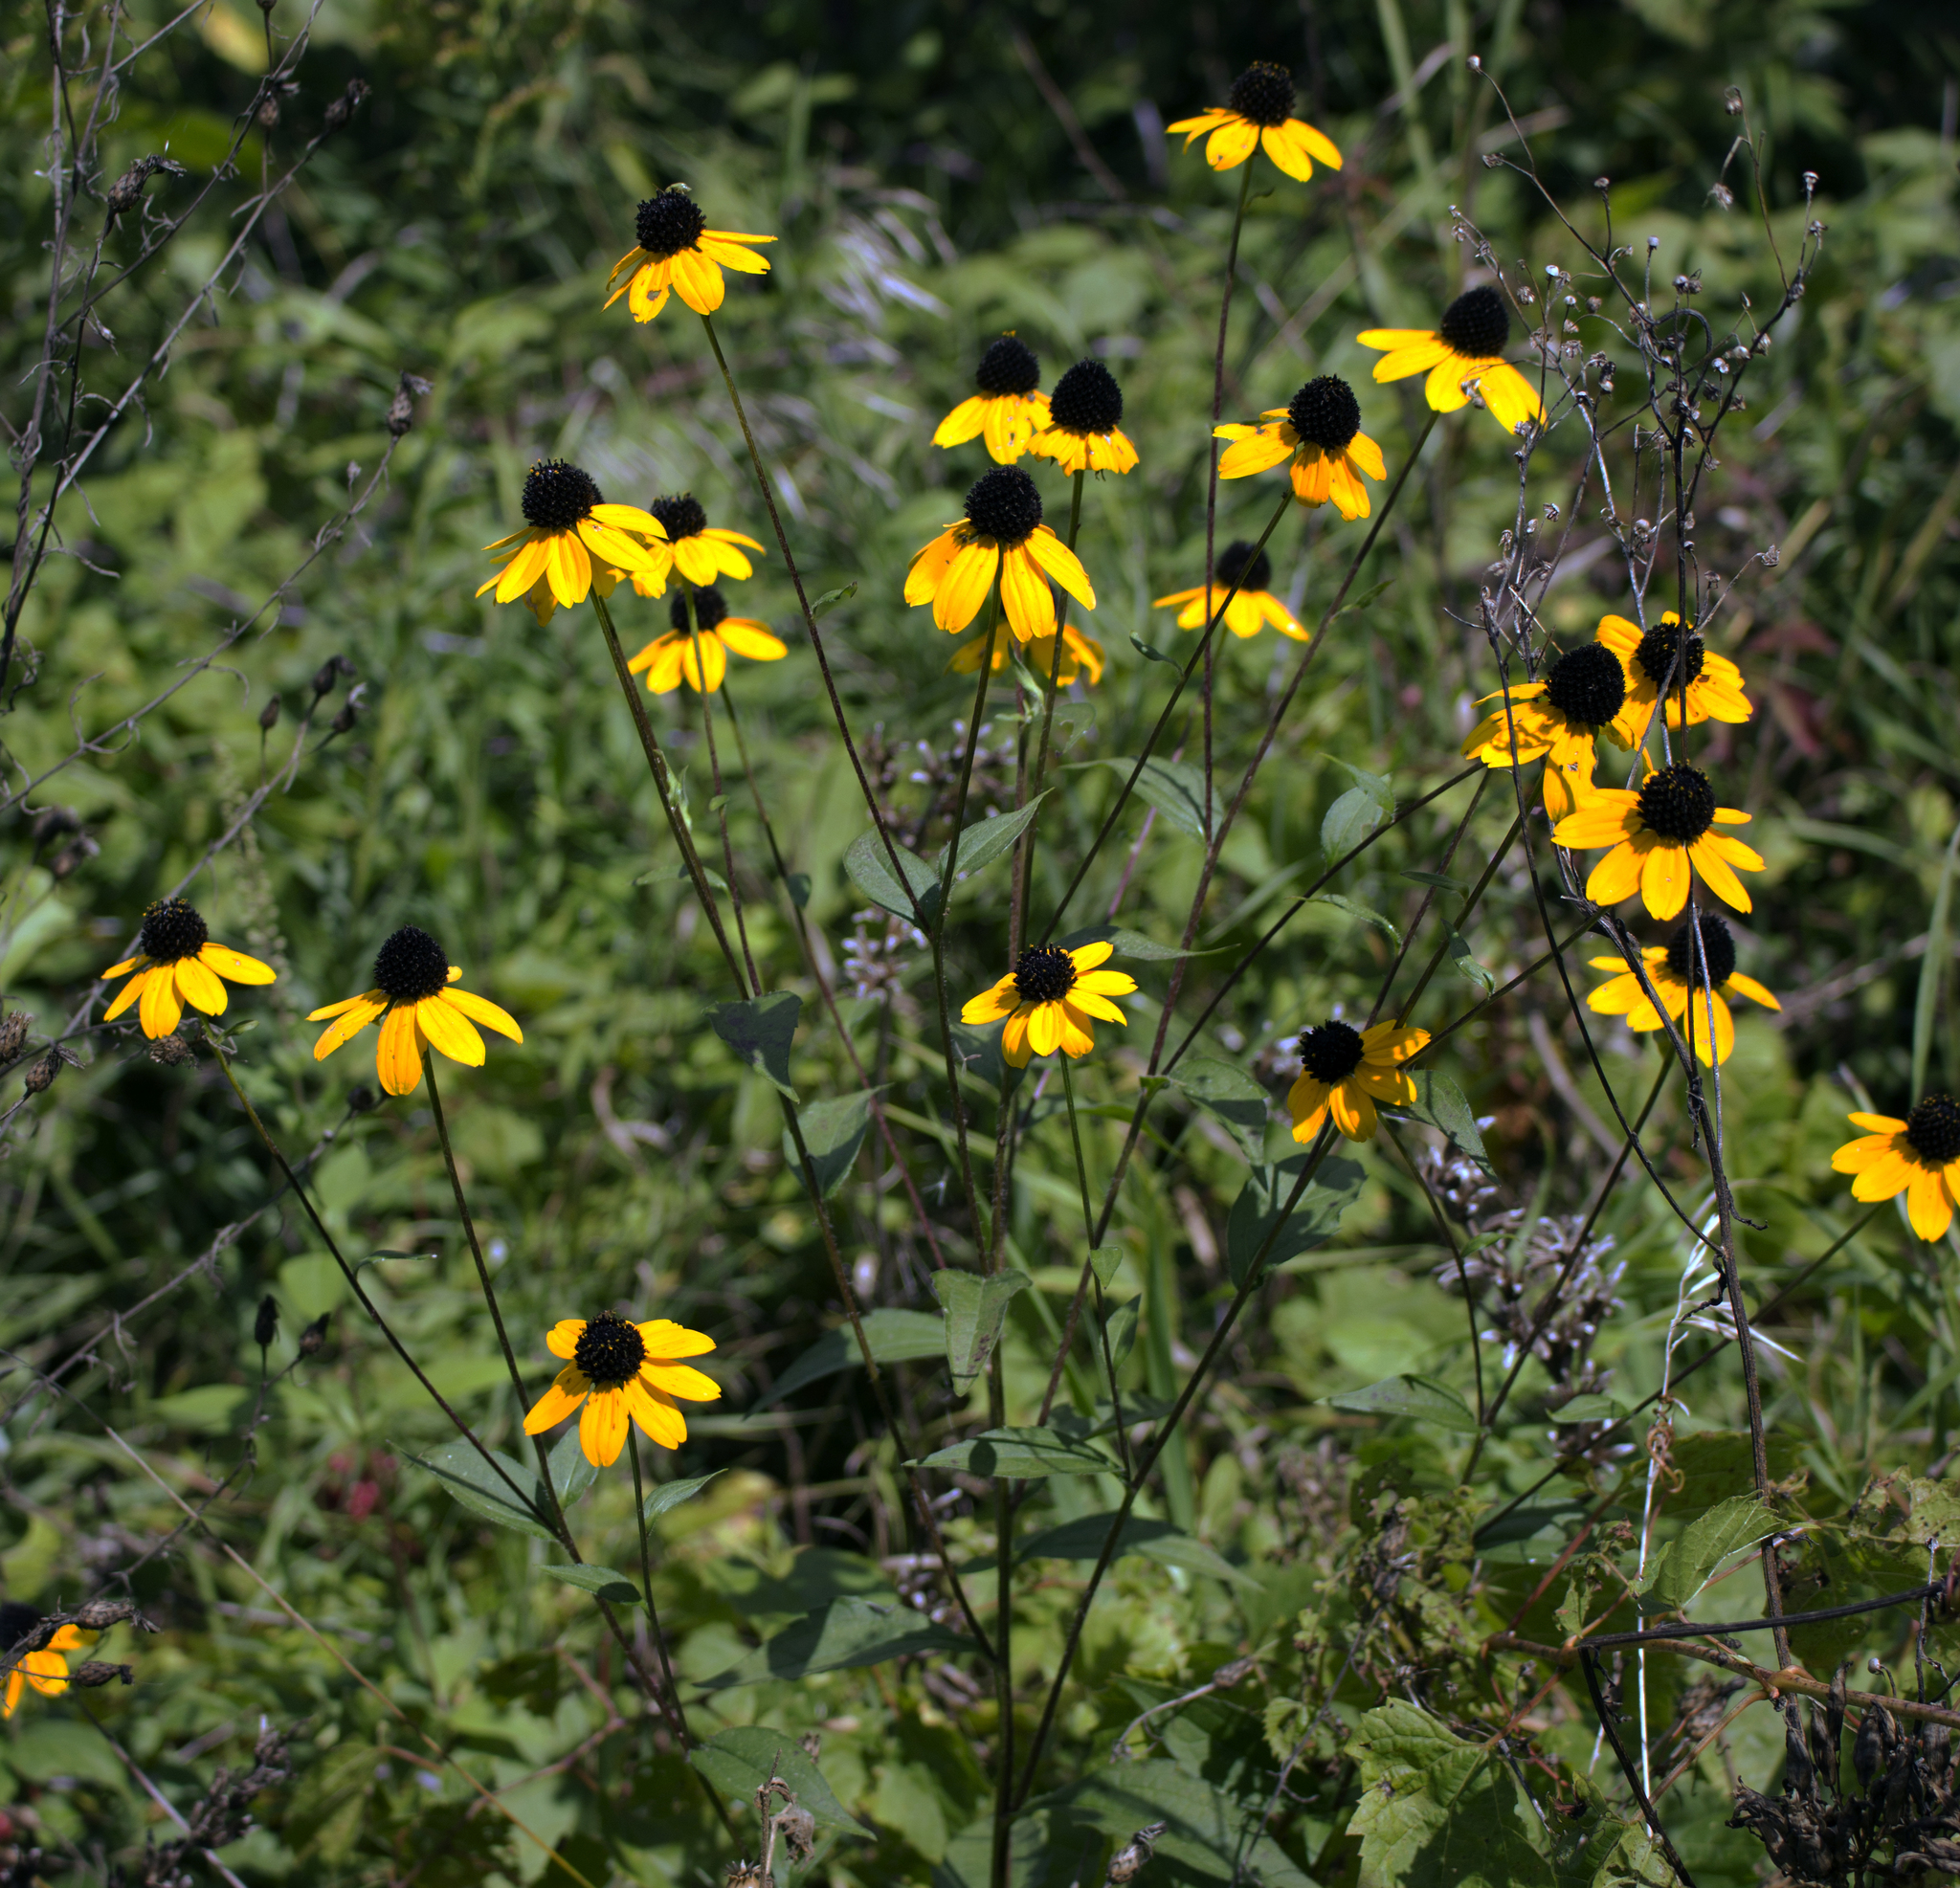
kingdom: Plantae
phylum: Tracheophyta
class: Magnoliopsida
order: Asterales
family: Asteraceae
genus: Rudbeckia
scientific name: Rudbeckia triloba
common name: Thin-leaved coneflower
